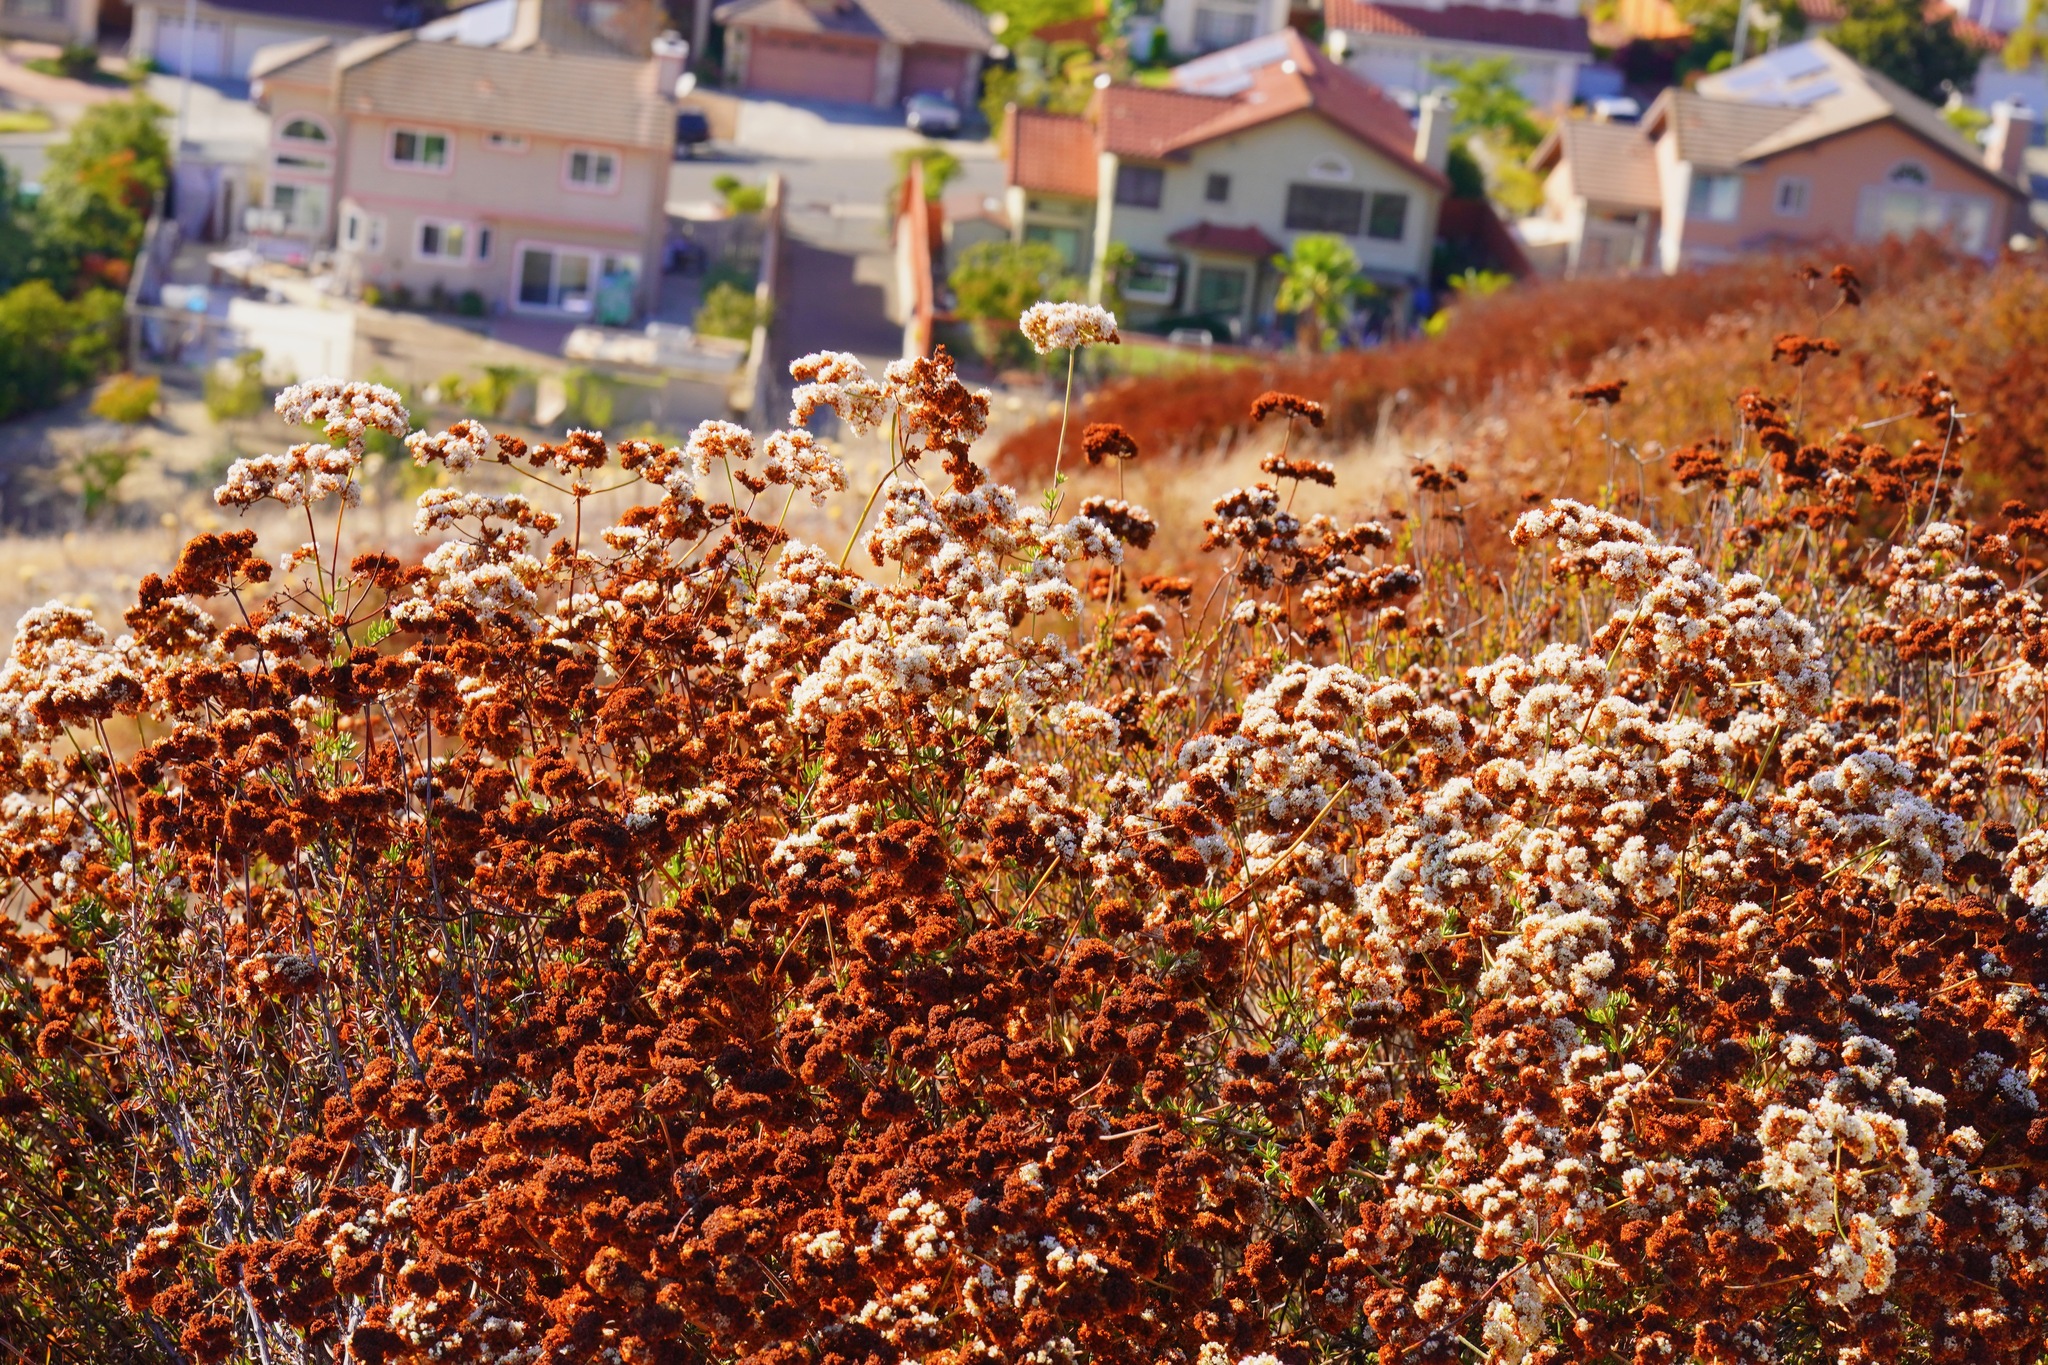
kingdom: Plantae
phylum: Tracheophyta
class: Magnoliopsida
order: Caryophyllales
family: Polygonaceae
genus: Eriogonum
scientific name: Eriogonum fasciculatum
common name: California wild buckwheat
